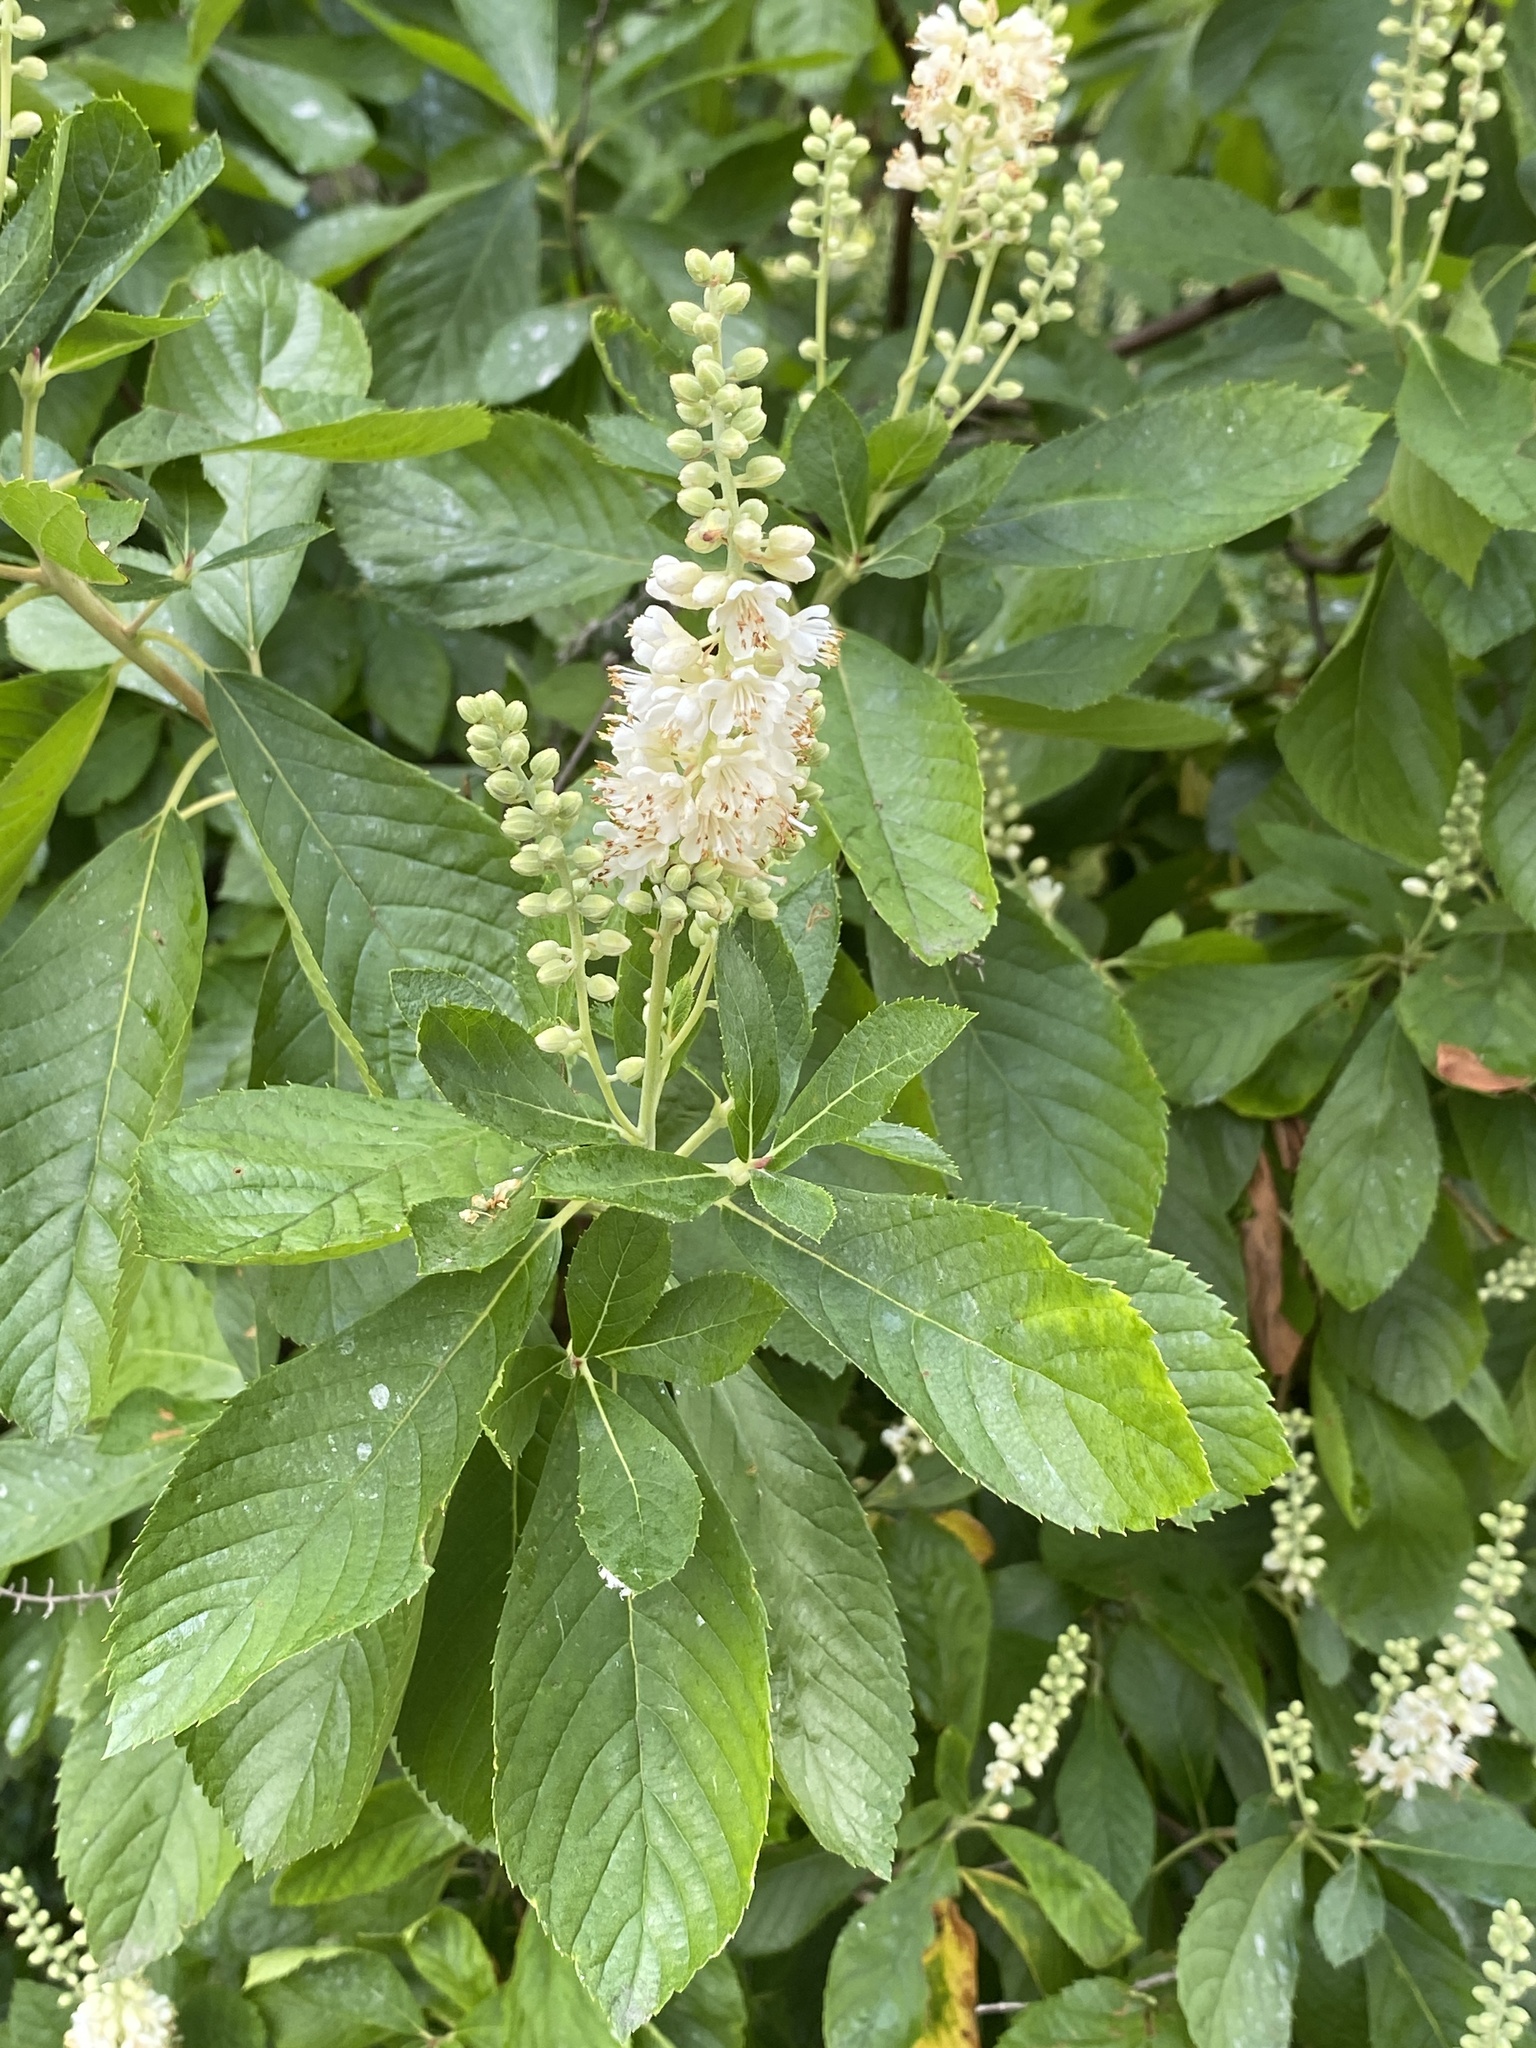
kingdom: Plantae
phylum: Tracheophyta
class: Magnoliopsida
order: Ericales
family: Clethraceae
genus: Clethra
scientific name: Clethra alnifolia
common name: Sweet pepperbush
